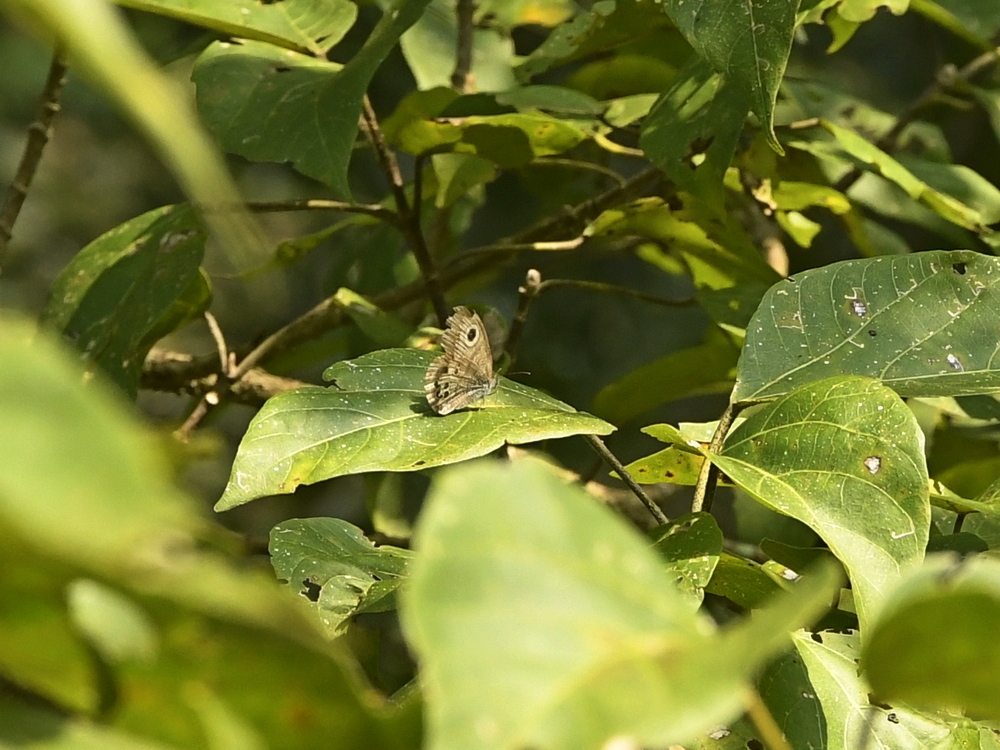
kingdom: Animalia
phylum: Arthropoda
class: Insecta
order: Lepidoptera
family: Nymphalidae
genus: Ypthima
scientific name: Ypthima baldus
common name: Common five-ring
